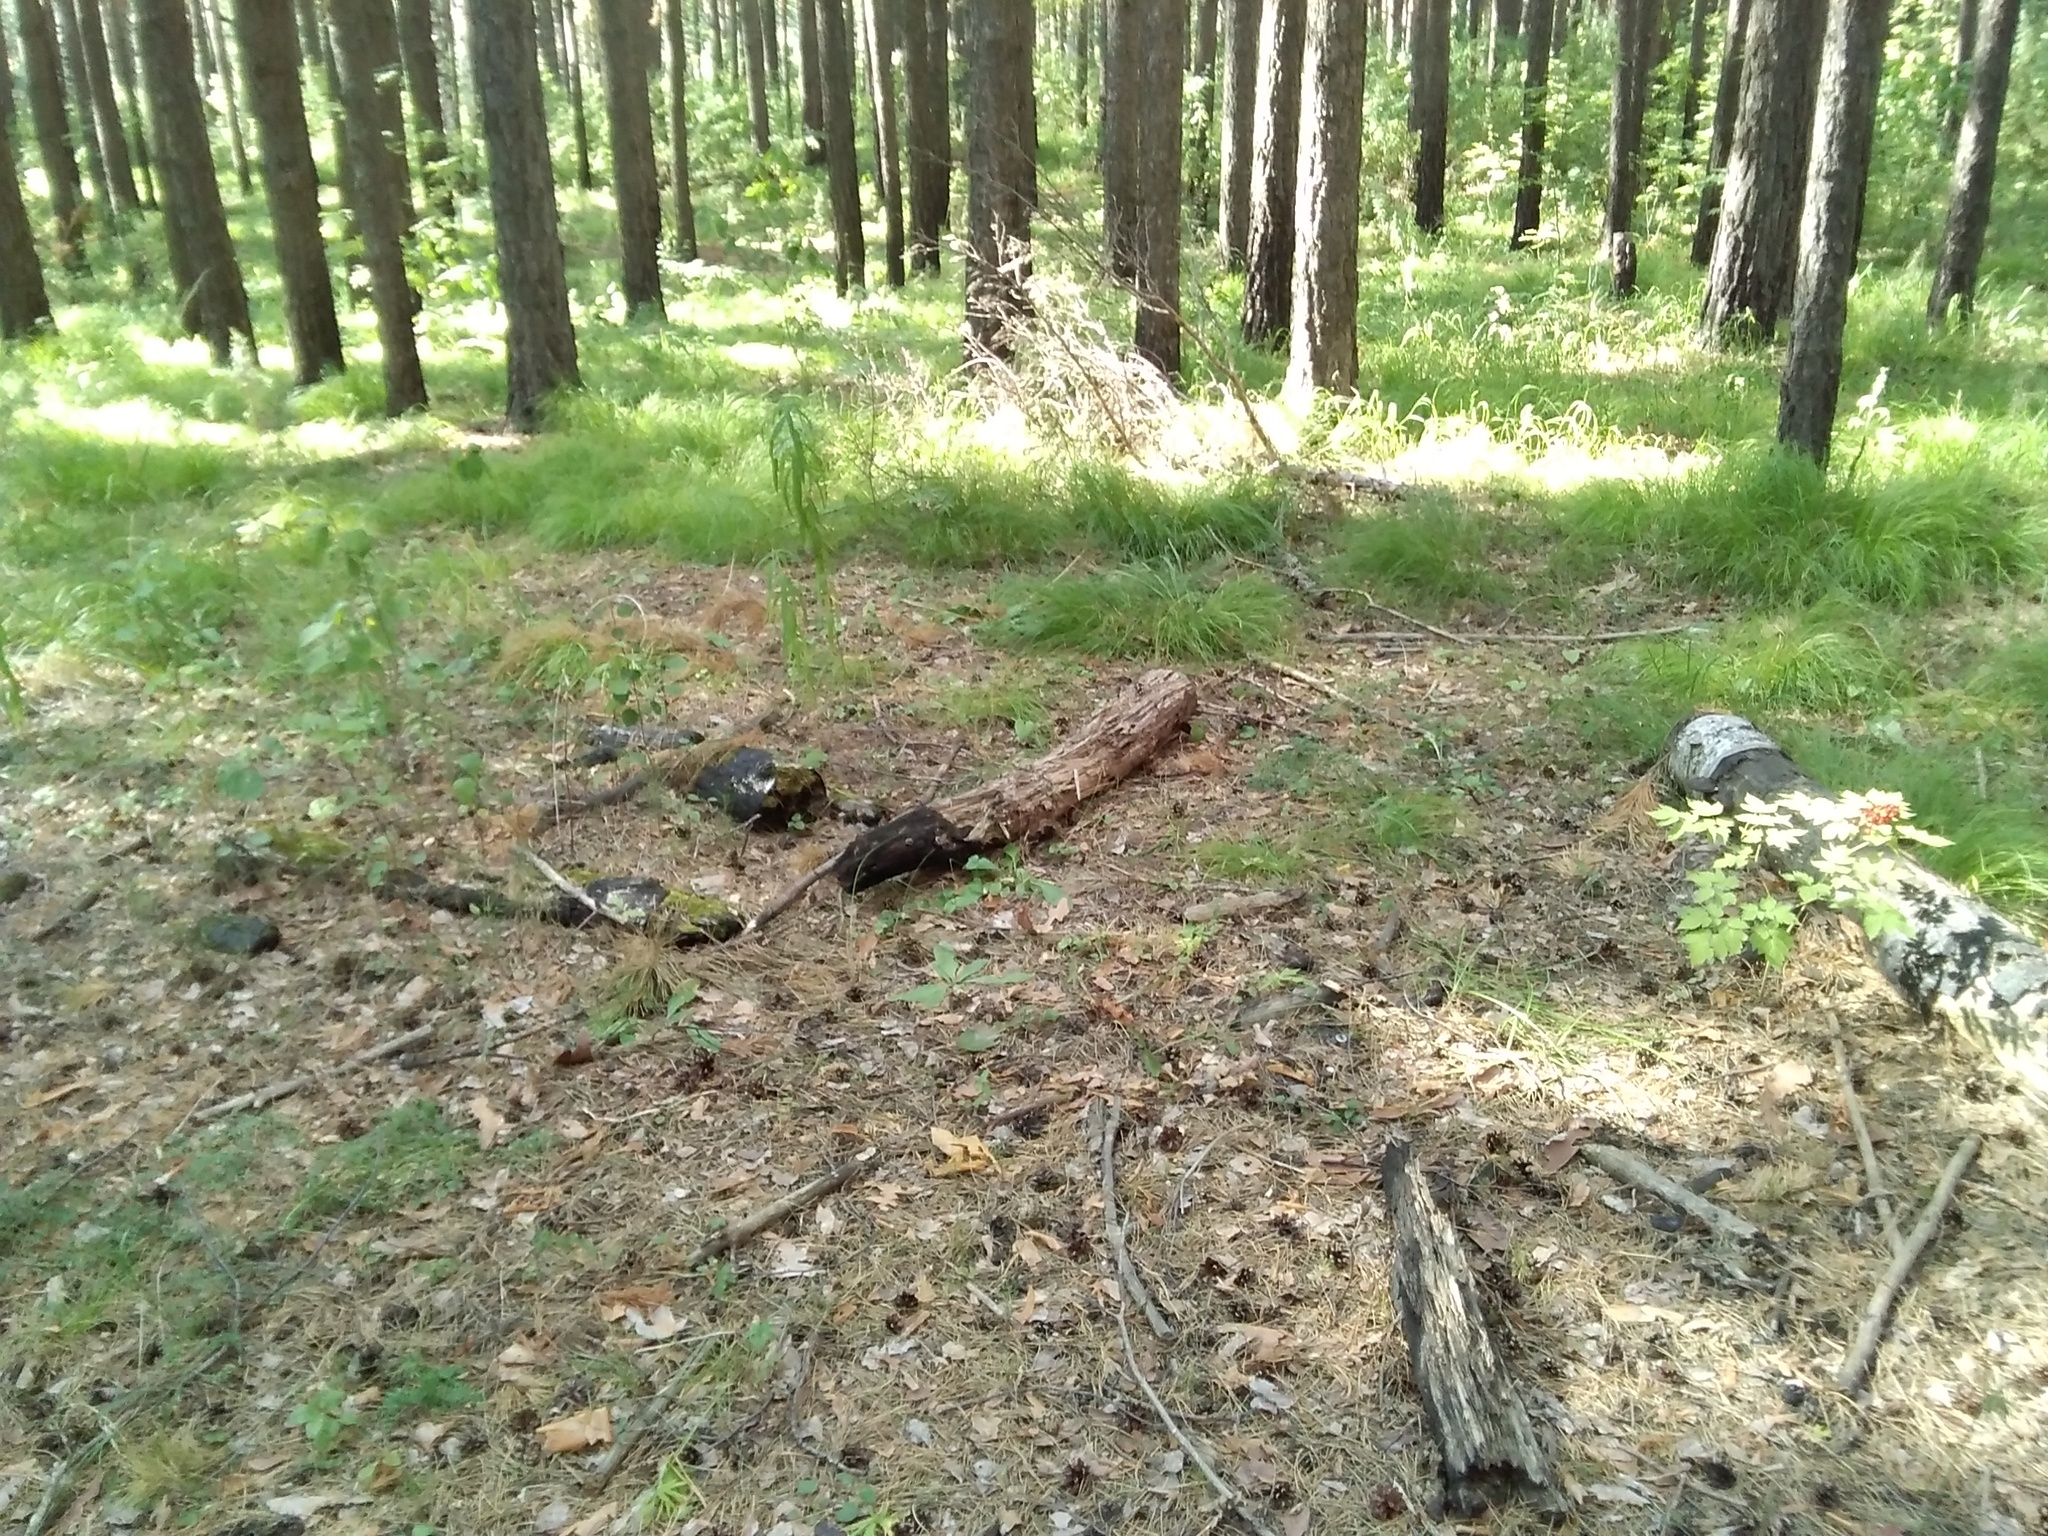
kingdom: Plantae
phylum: Tracheophyta
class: Magnoliopsida
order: Ranunculales
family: Ranunculaceae
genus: Actaea
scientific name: Actaea erythrocarpa
